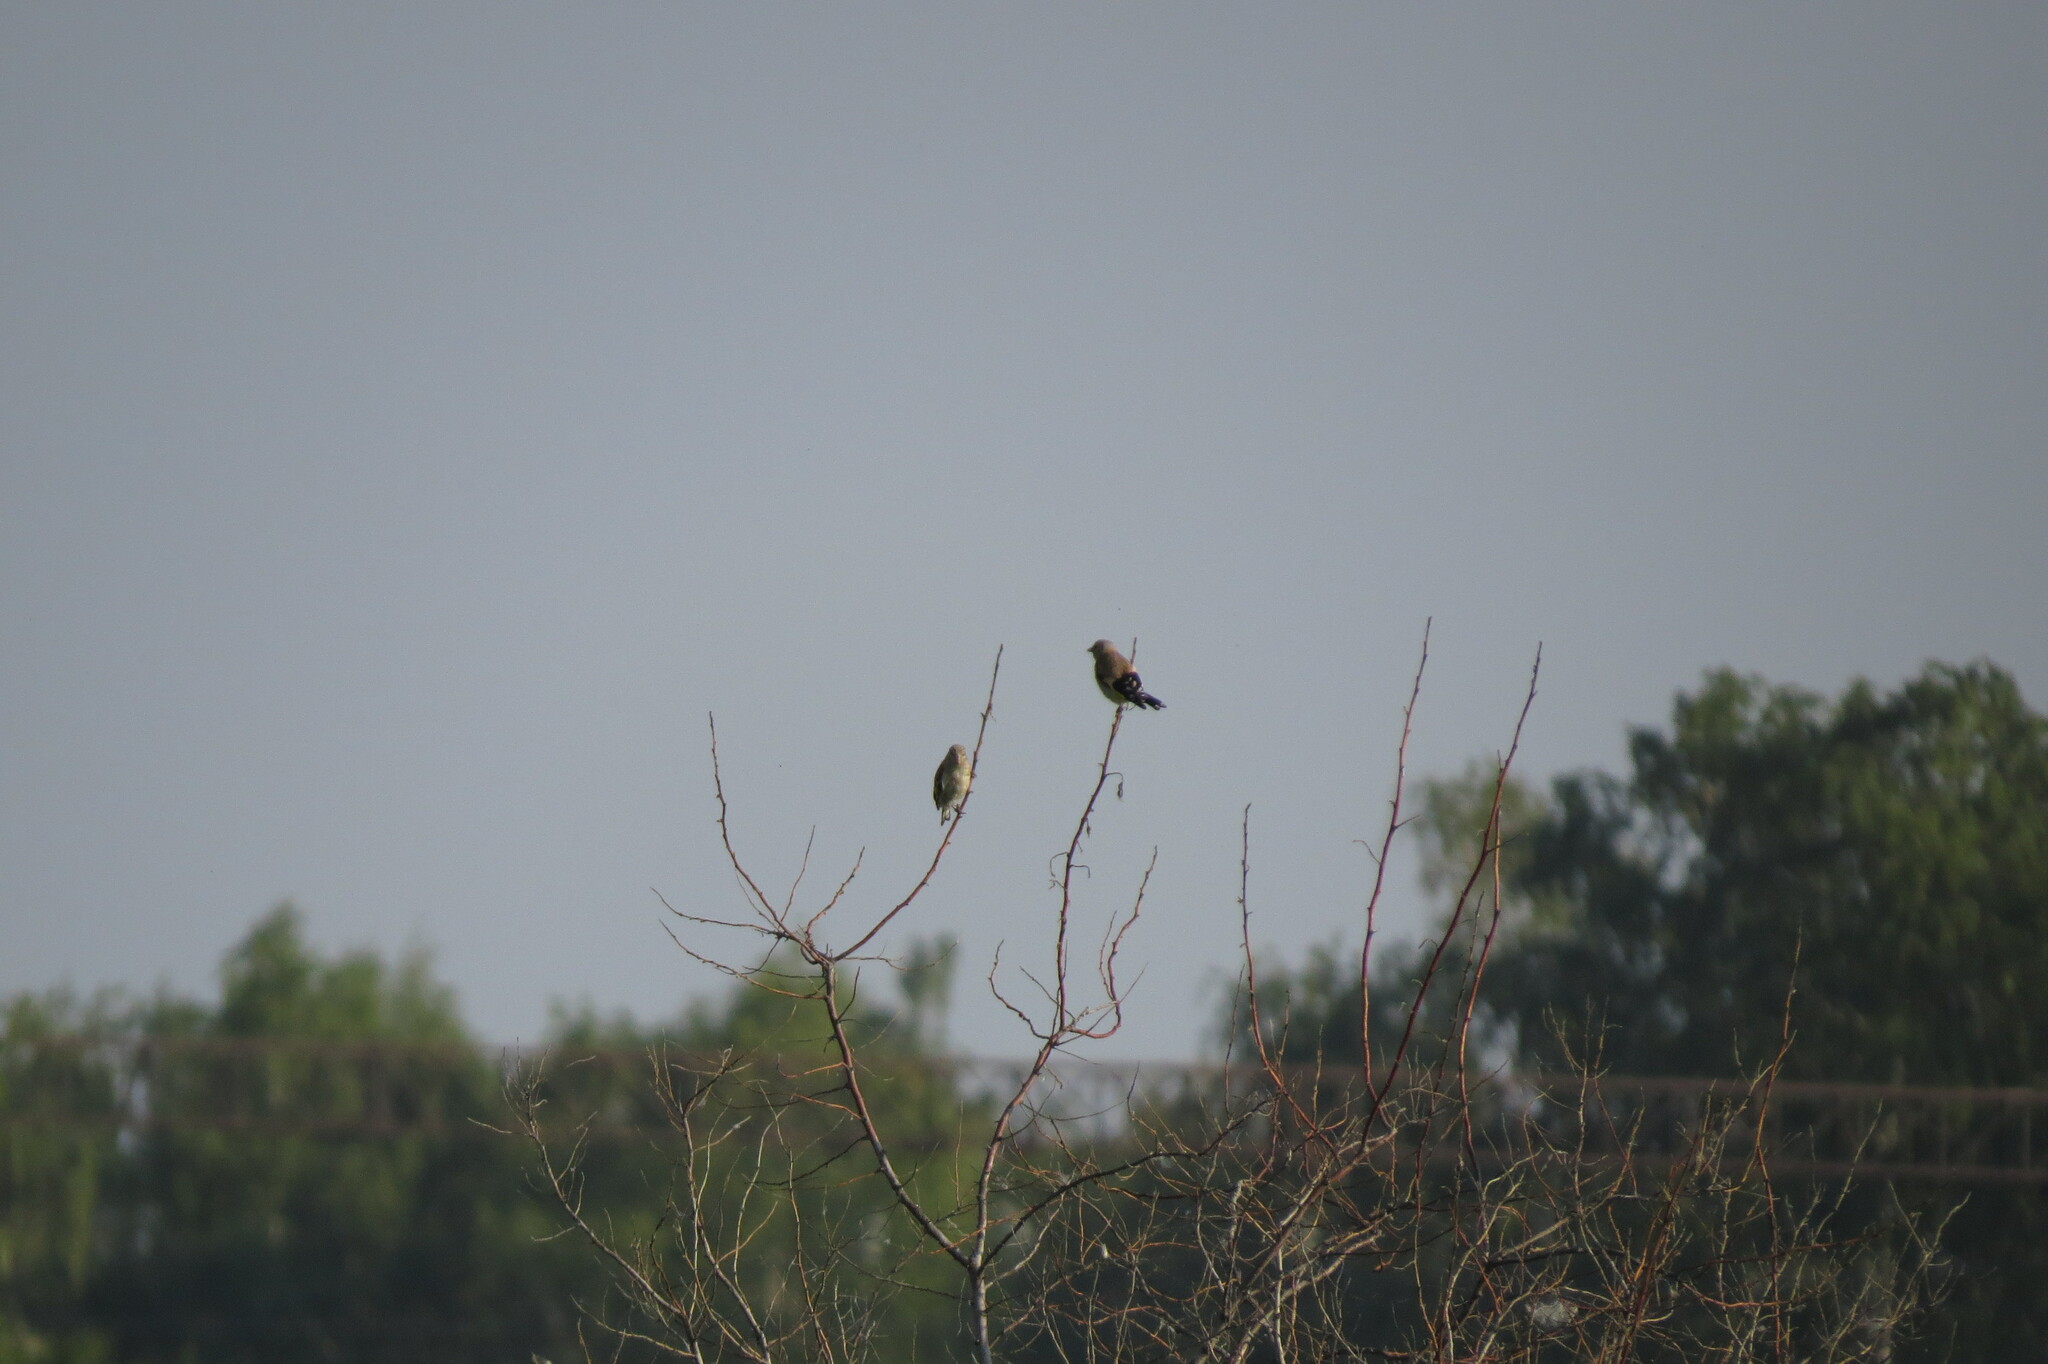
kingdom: Animalia
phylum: Chordata
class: Aves
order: Passeriformes
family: Fringillidae
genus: Carduelis
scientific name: Carduelis carduelis
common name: European goldfinch
